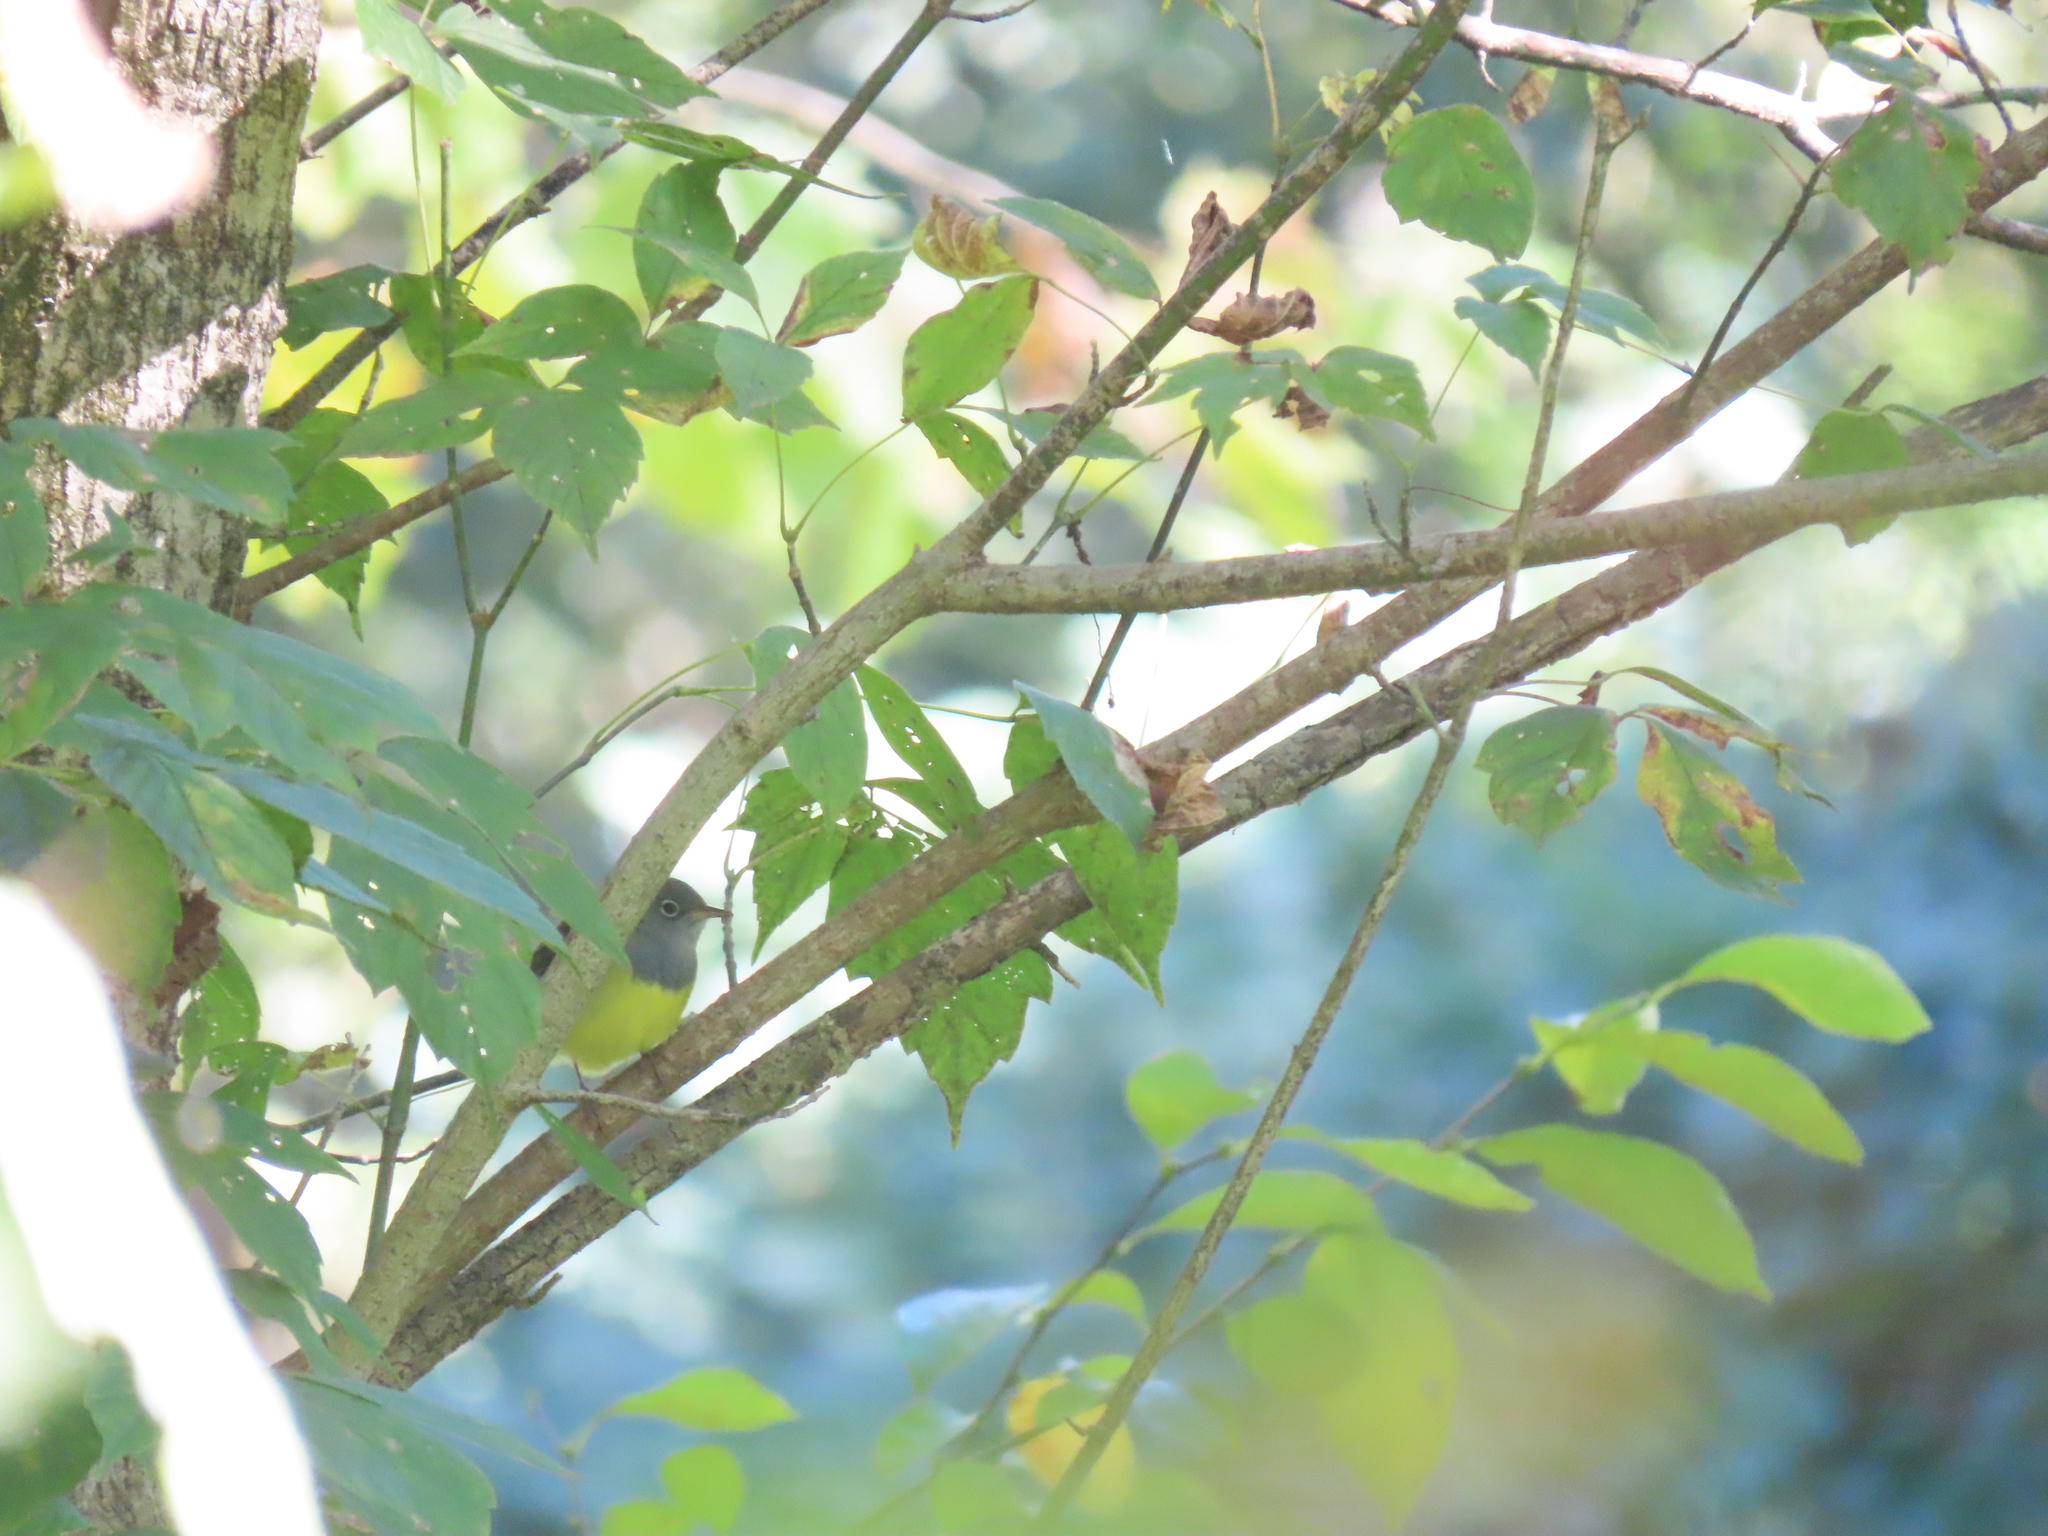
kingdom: Animalia
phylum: Chordata
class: Aves
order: Passeriformes
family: Parulidae
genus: Oporornis
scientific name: Oporornis agilis
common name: Connecticut warbler
